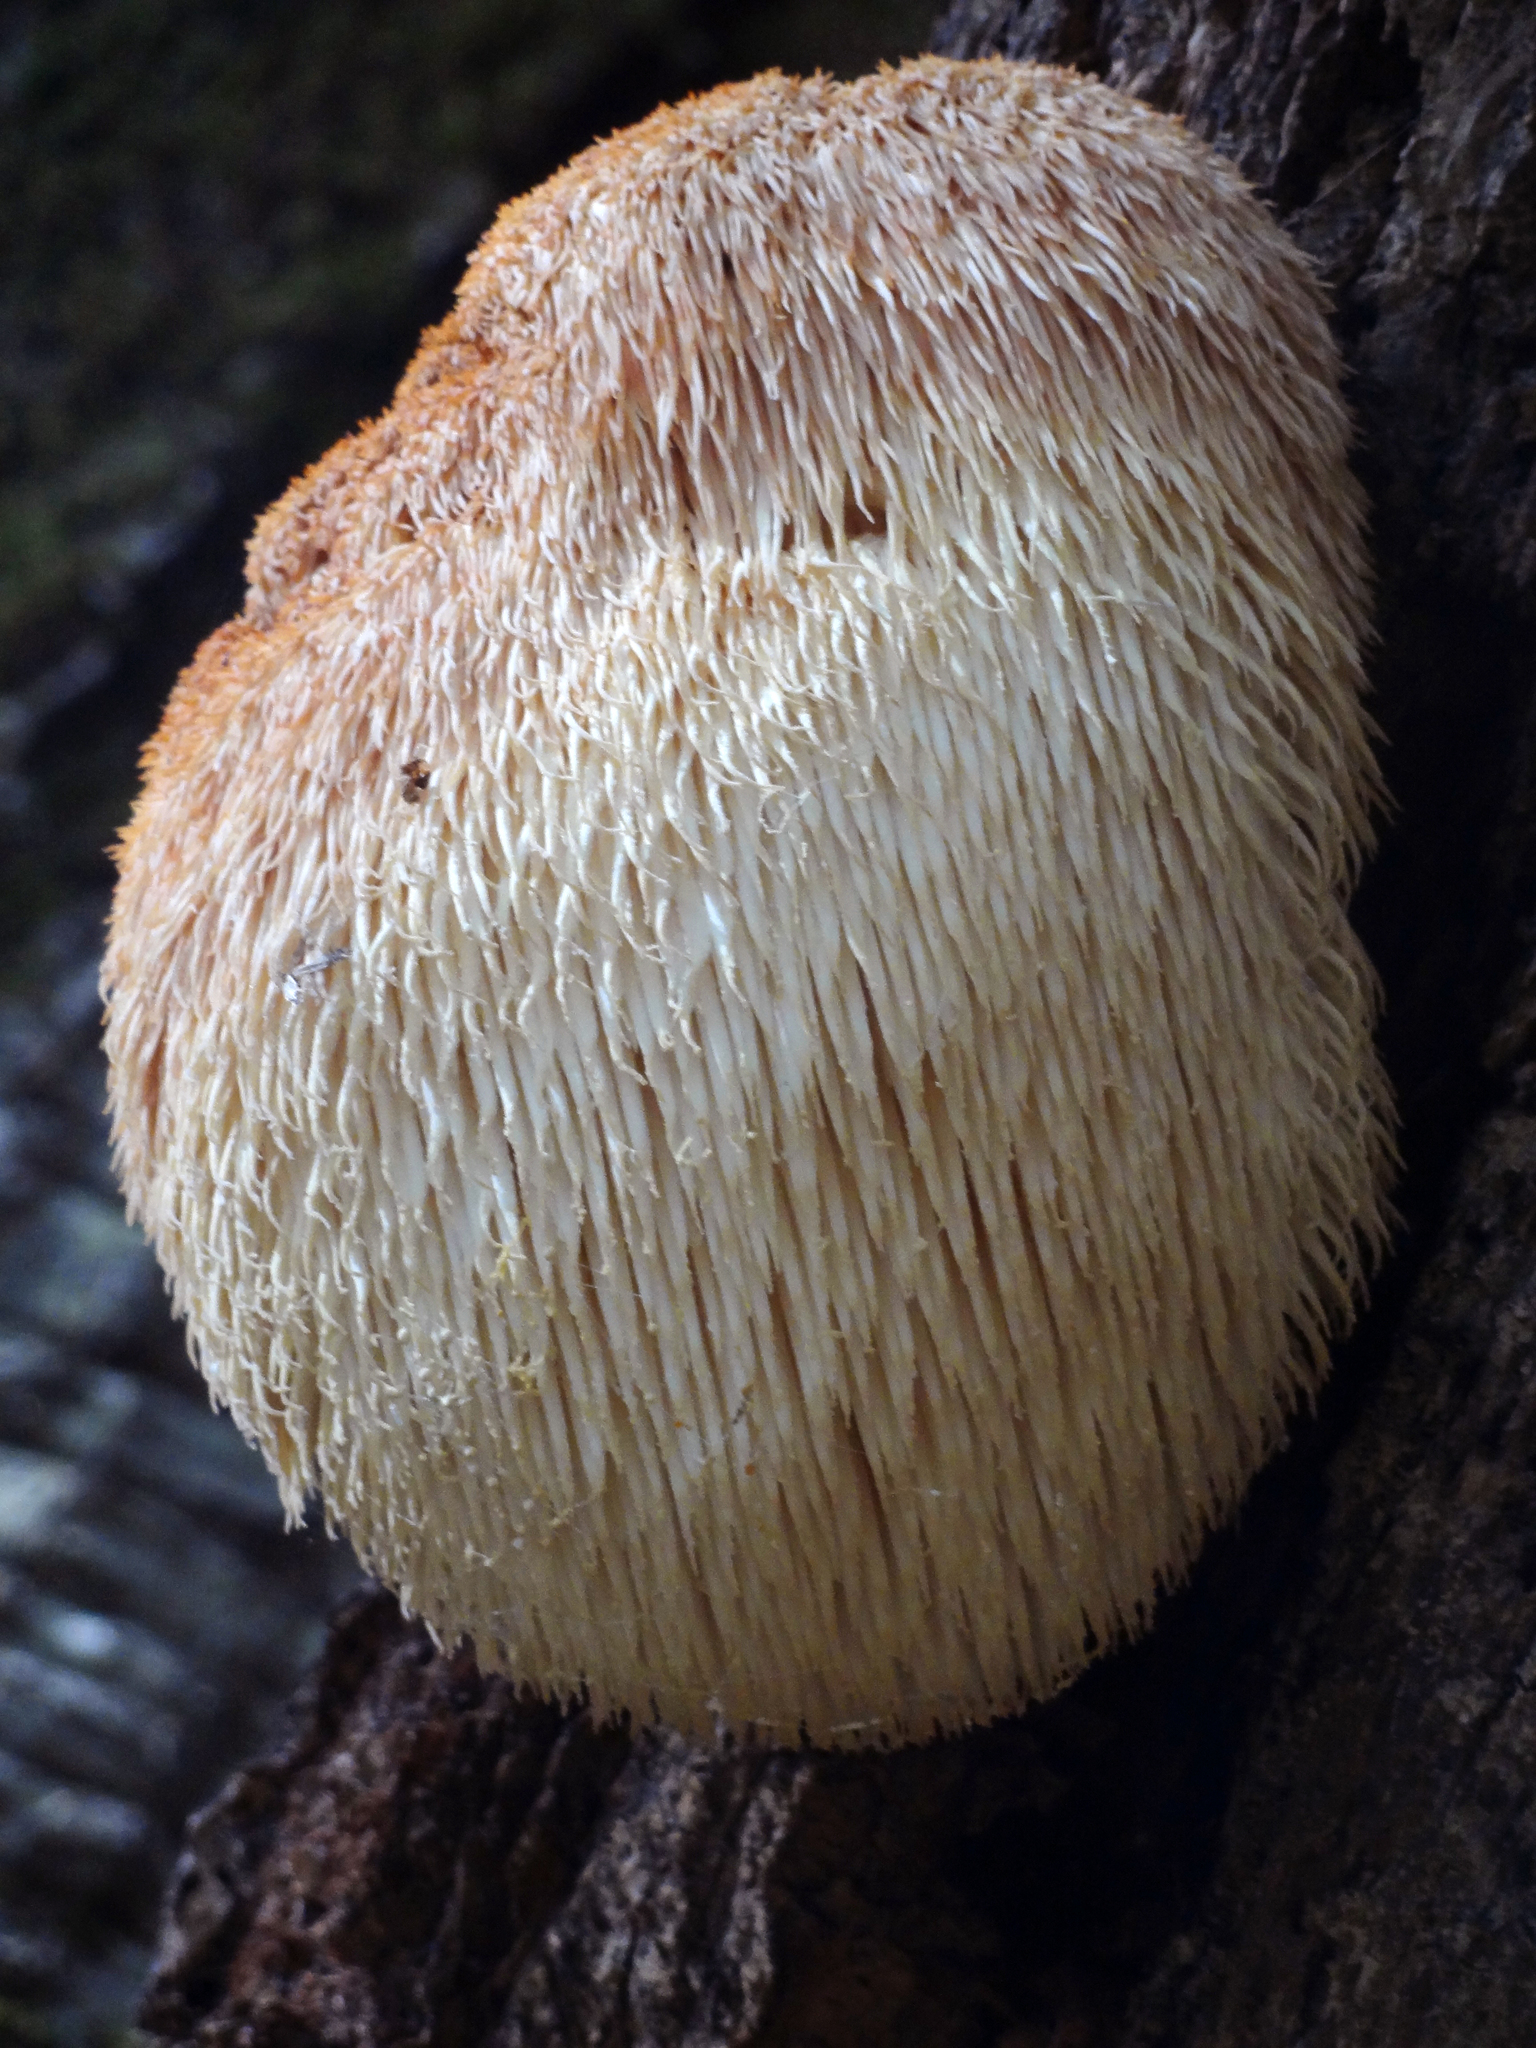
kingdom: Fungi
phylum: Basidiomycota
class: Agaricomycetes
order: Russulales
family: Hericiaceae
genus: Hericium
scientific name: Hericium erinaceus
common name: Bearded tooth
